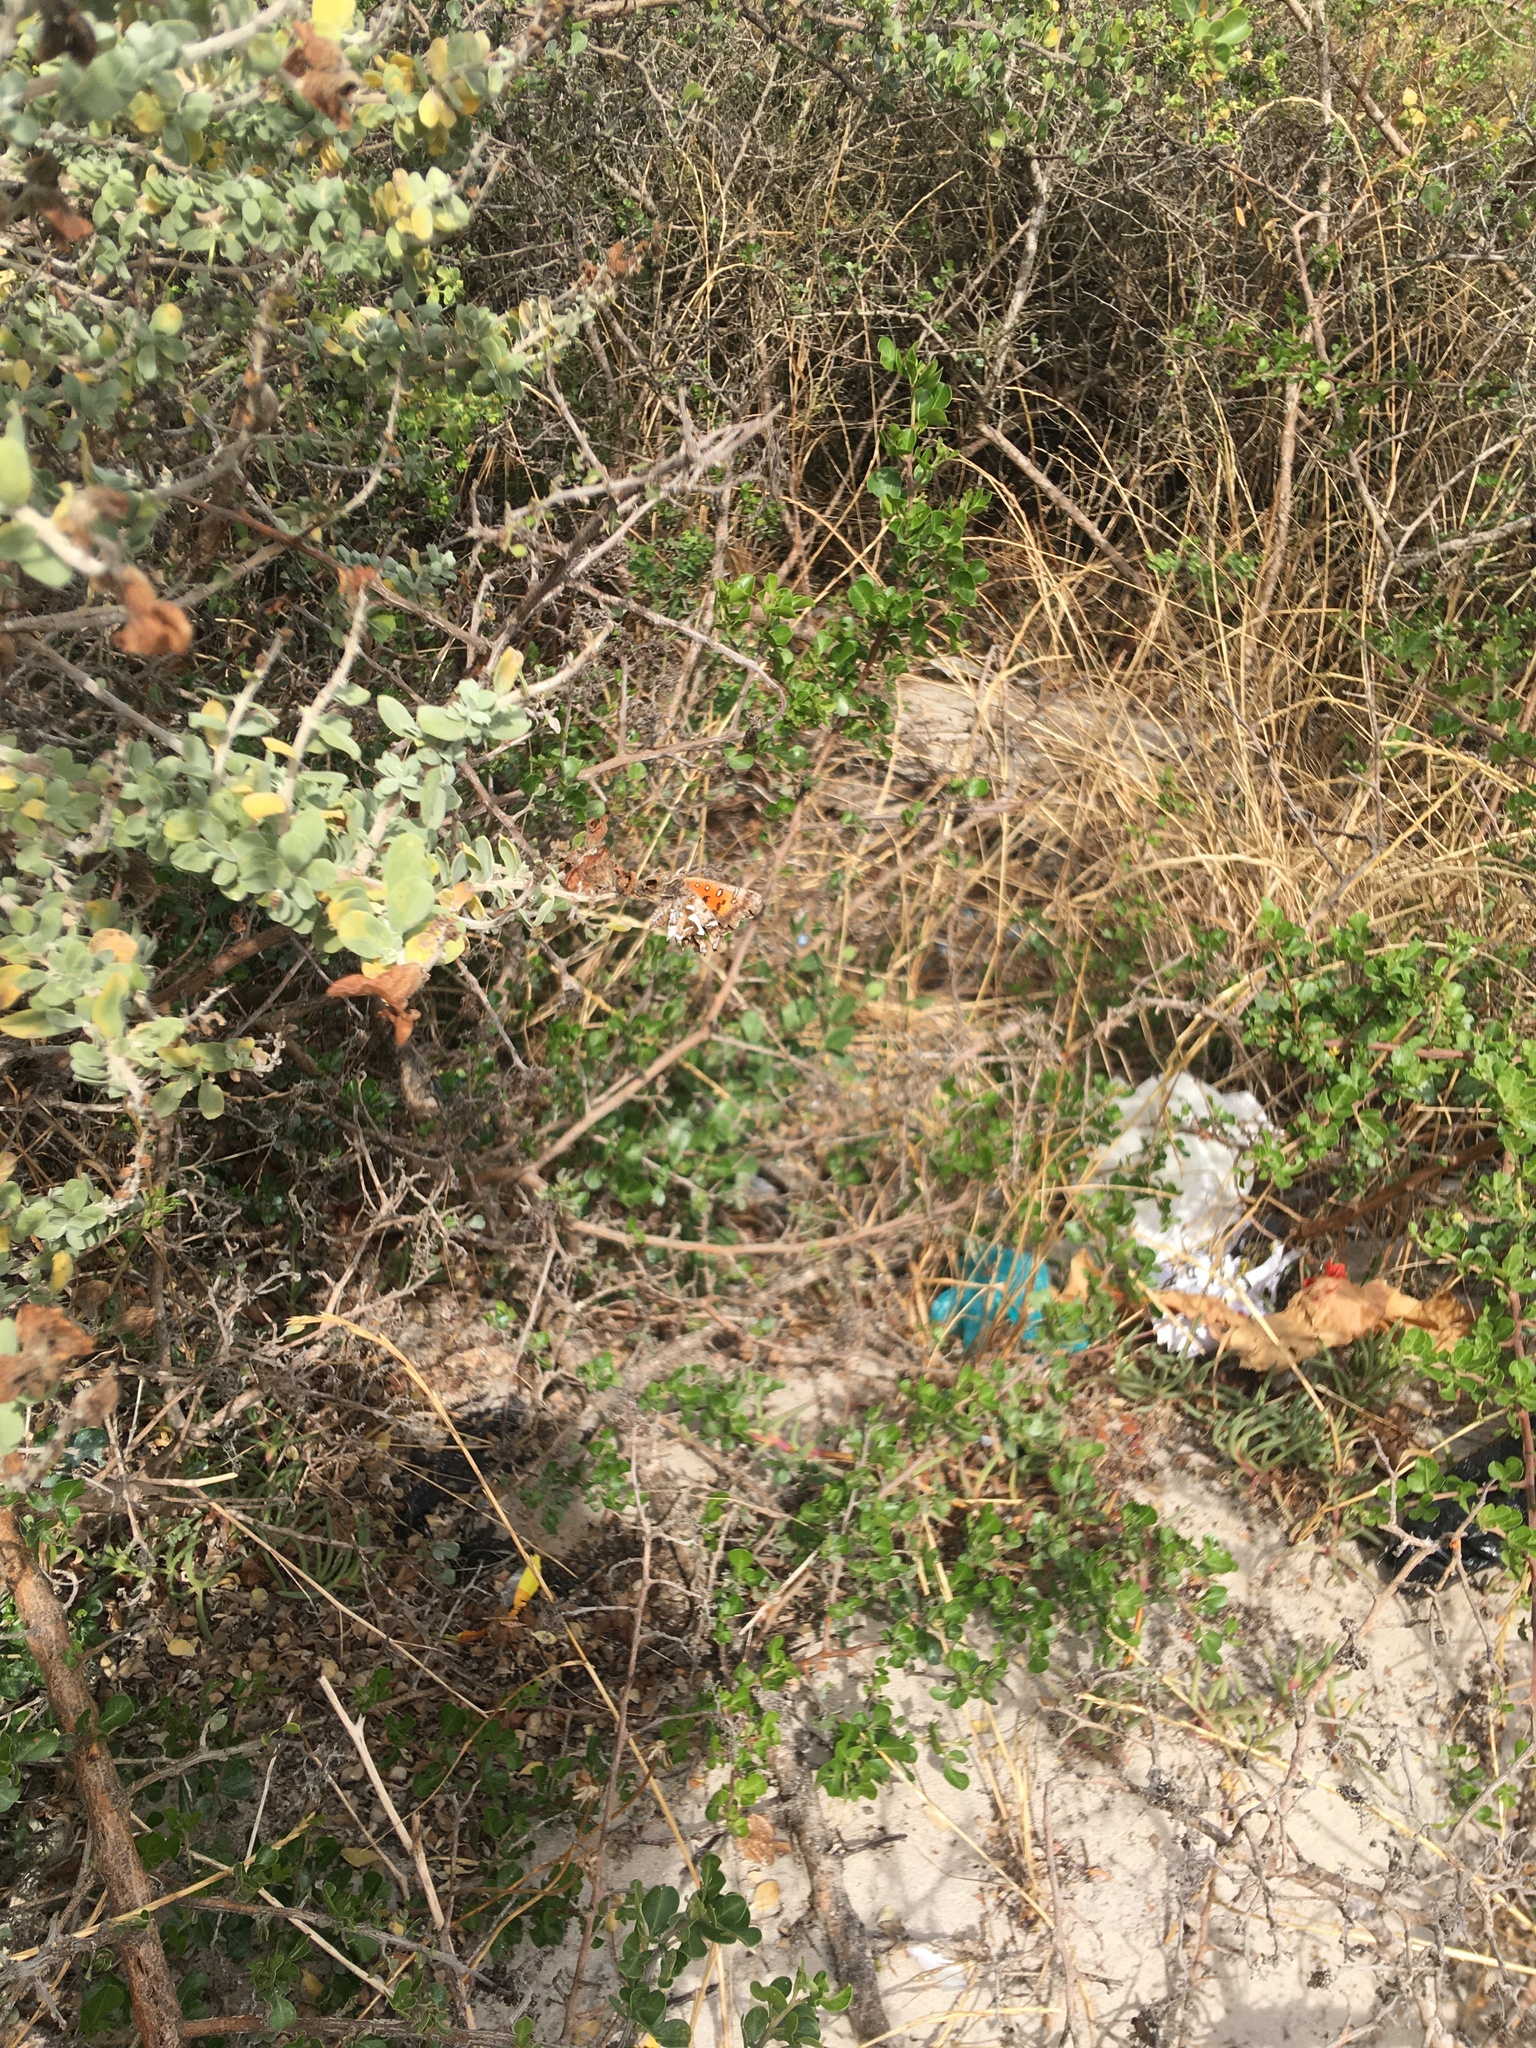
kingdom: Animalia
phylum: Arthropoda
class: Insecta
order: Lepidoptera
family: Lycaenidae
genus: Phasis
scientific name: Phasis thero
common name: Silver arrowhead
